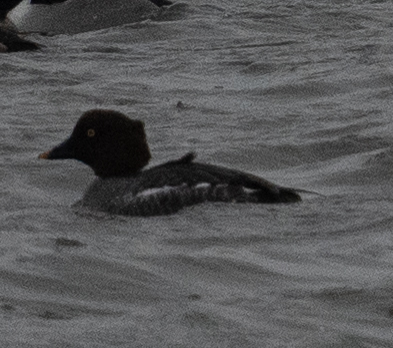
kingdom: Animalia
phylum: Chordata
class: Aves
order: Anseriformes
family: Anatidae
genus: Bucephala
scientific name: Bucephala clangula
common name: Common goldeneye
